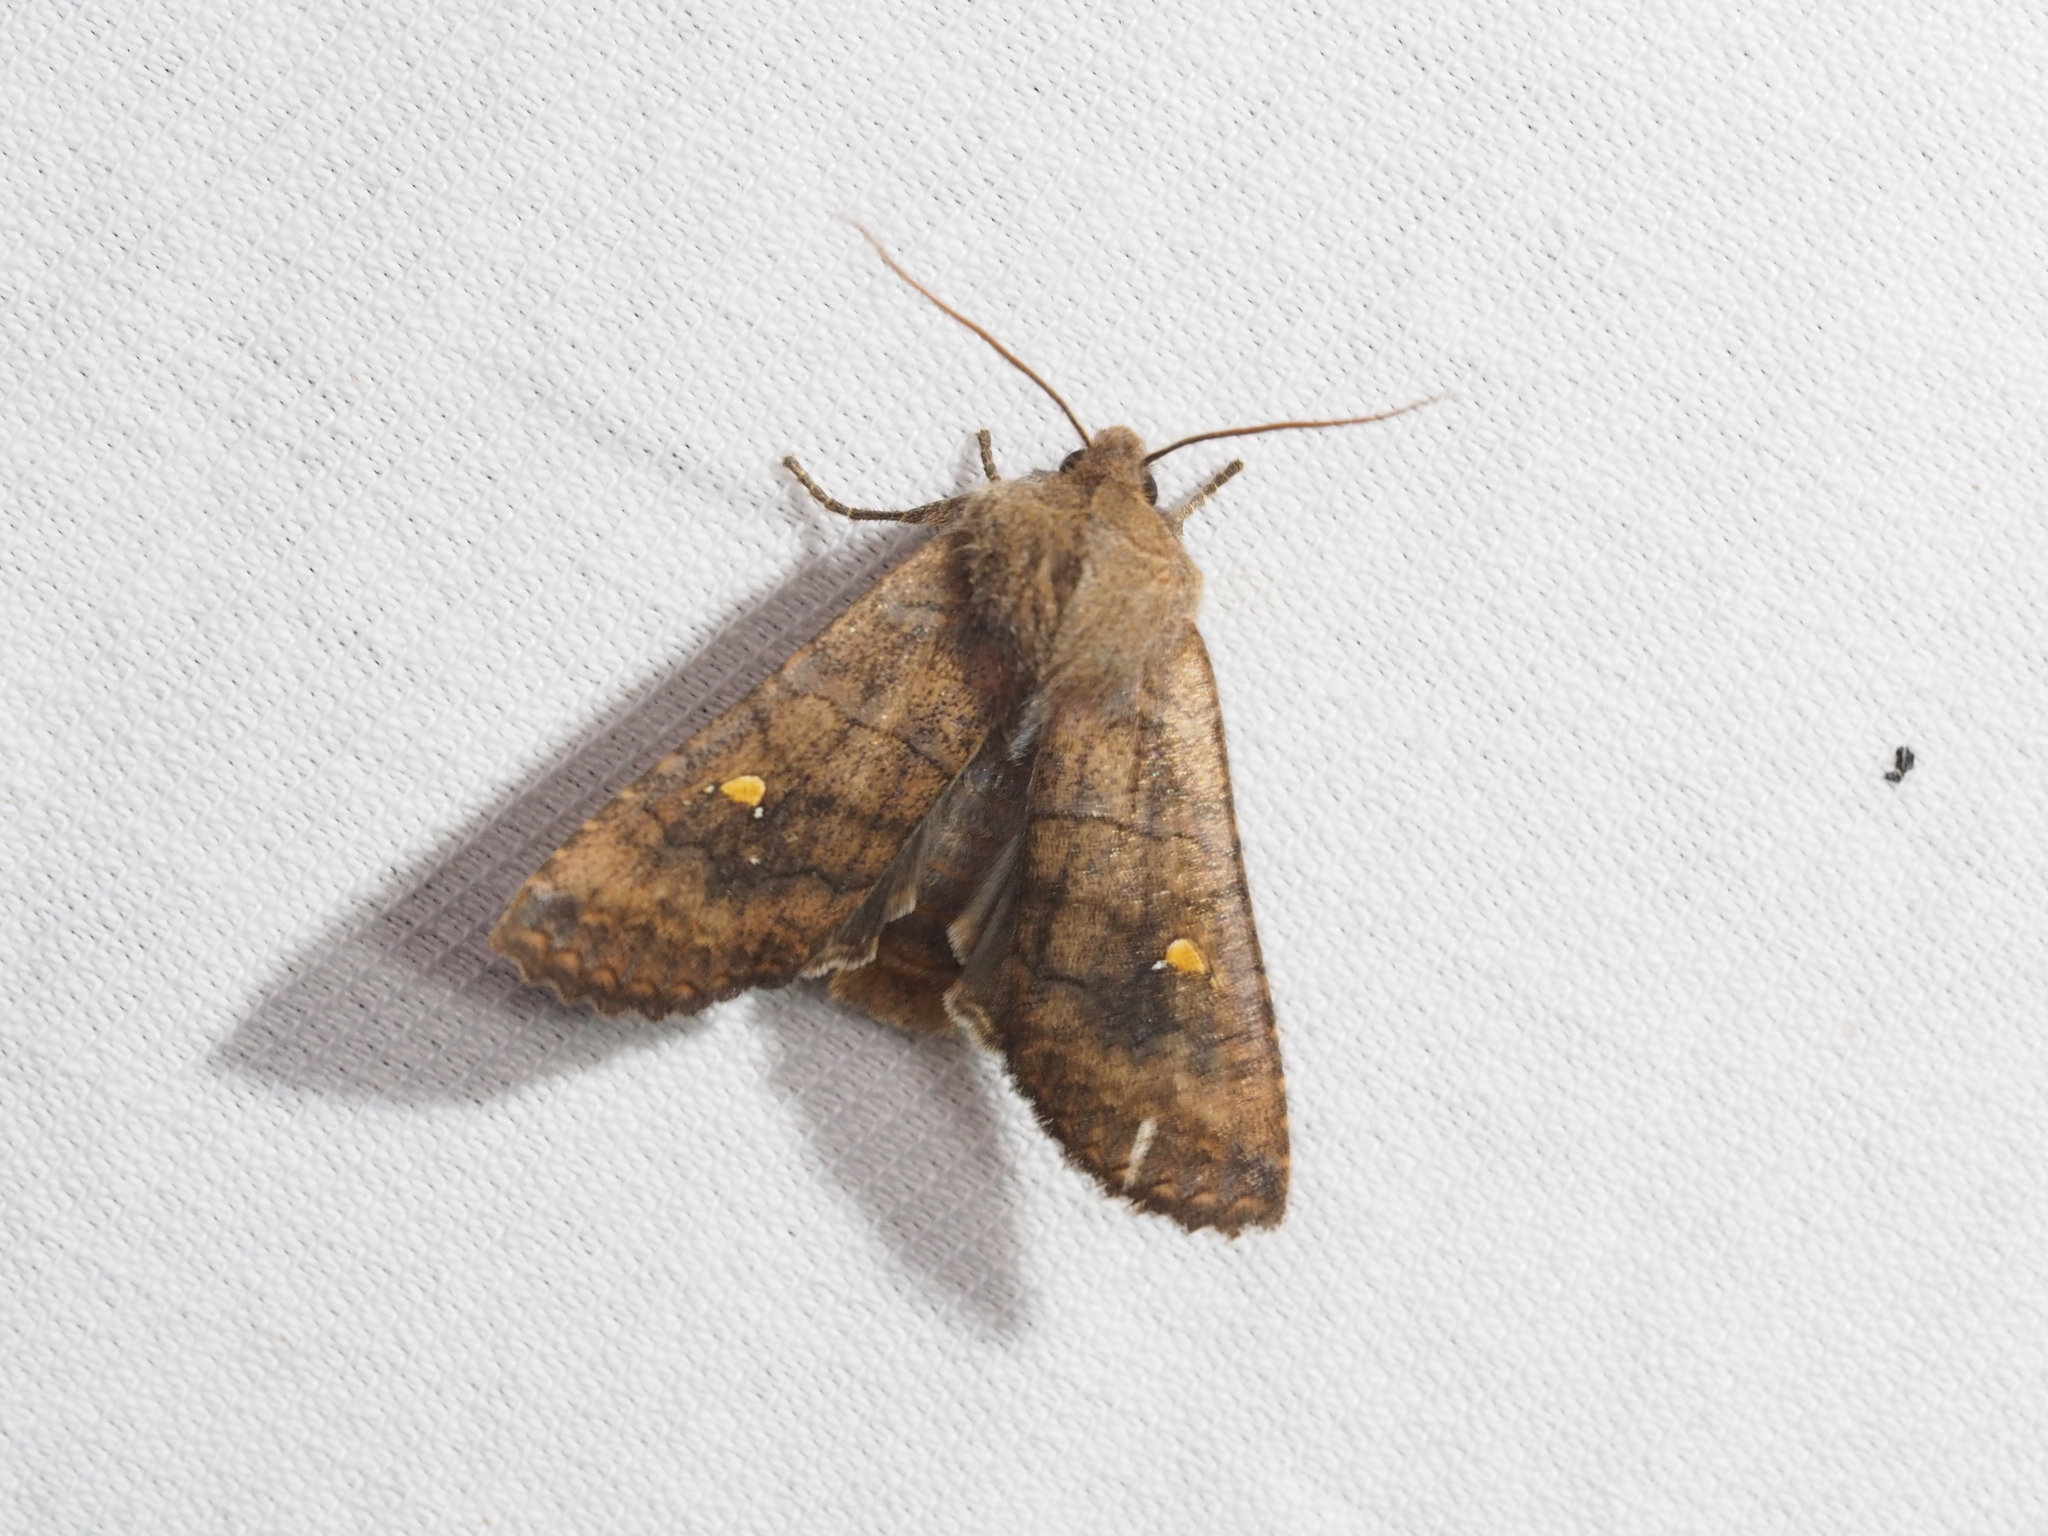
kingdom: Animalia
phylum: Arthropoda
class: Insecta
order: Lepidoptera
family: Noctuidae
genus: Eupsilia
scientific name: Eupsilia transversa
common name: Satellite
